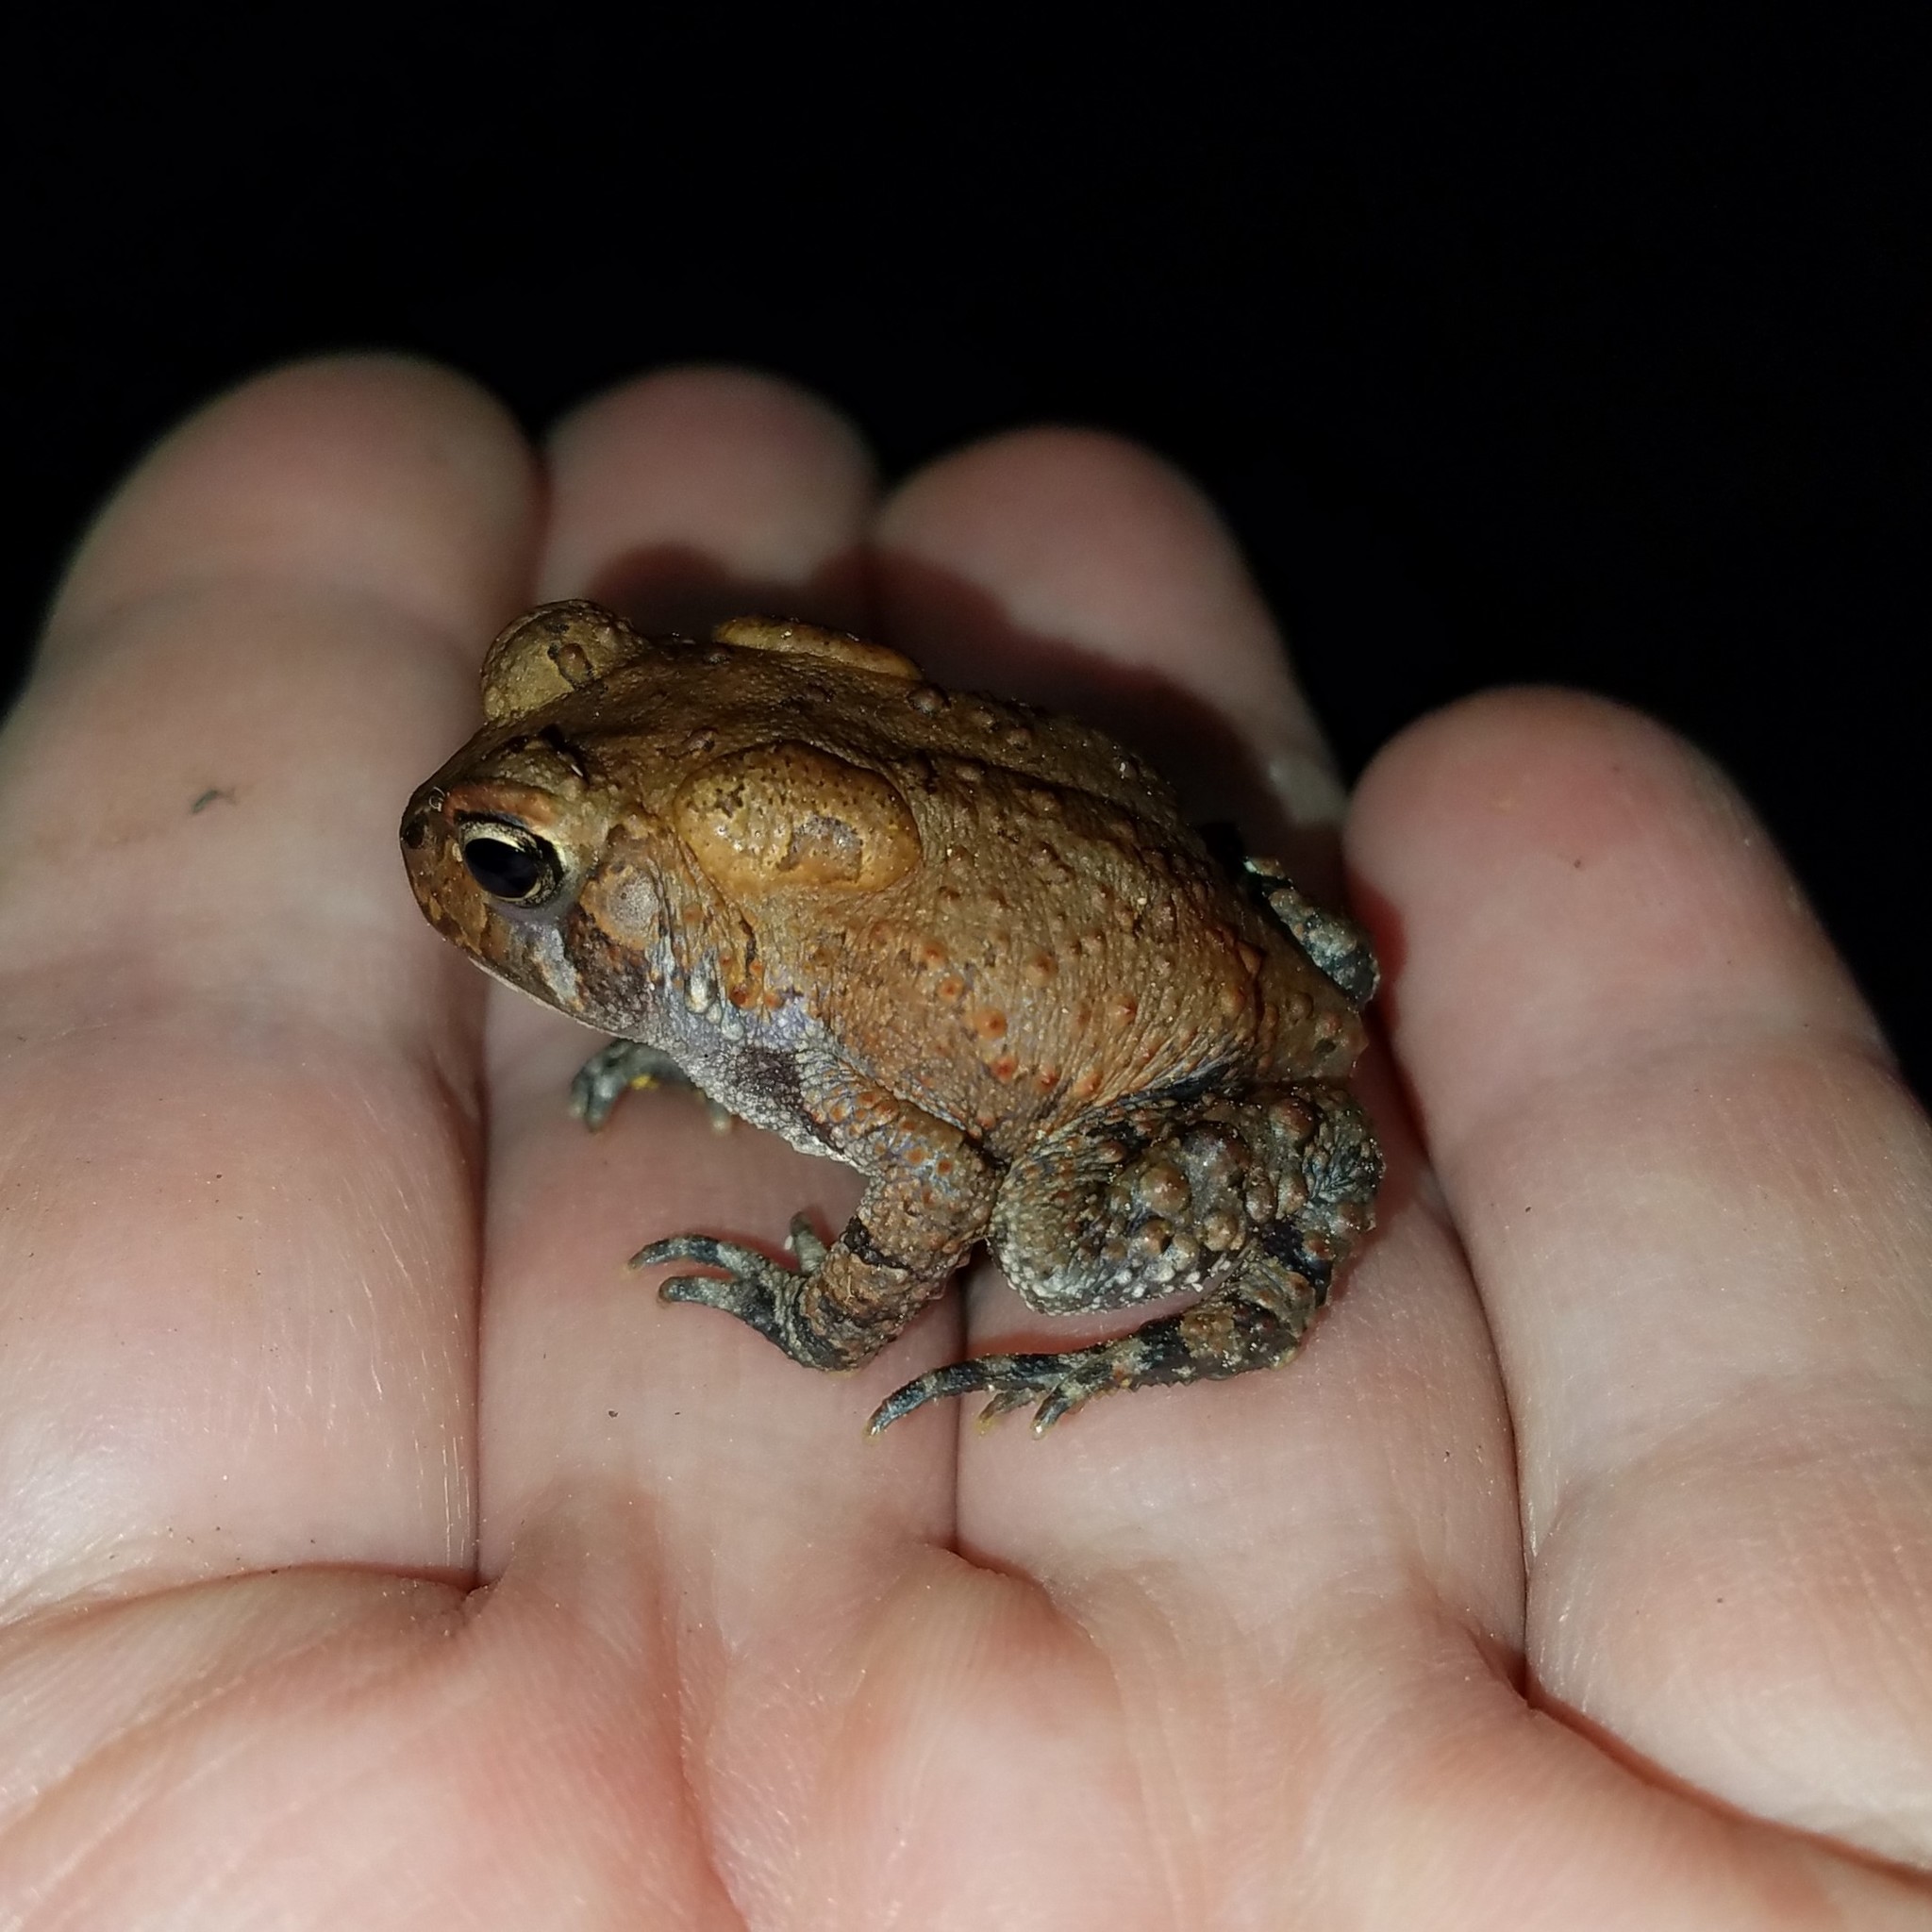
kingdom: Animalia
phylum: Chordata
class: Amphibia
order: Anura
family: Bufonidae
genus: Anaxyrus
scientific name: Anaxyrus americanus
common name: American toad
